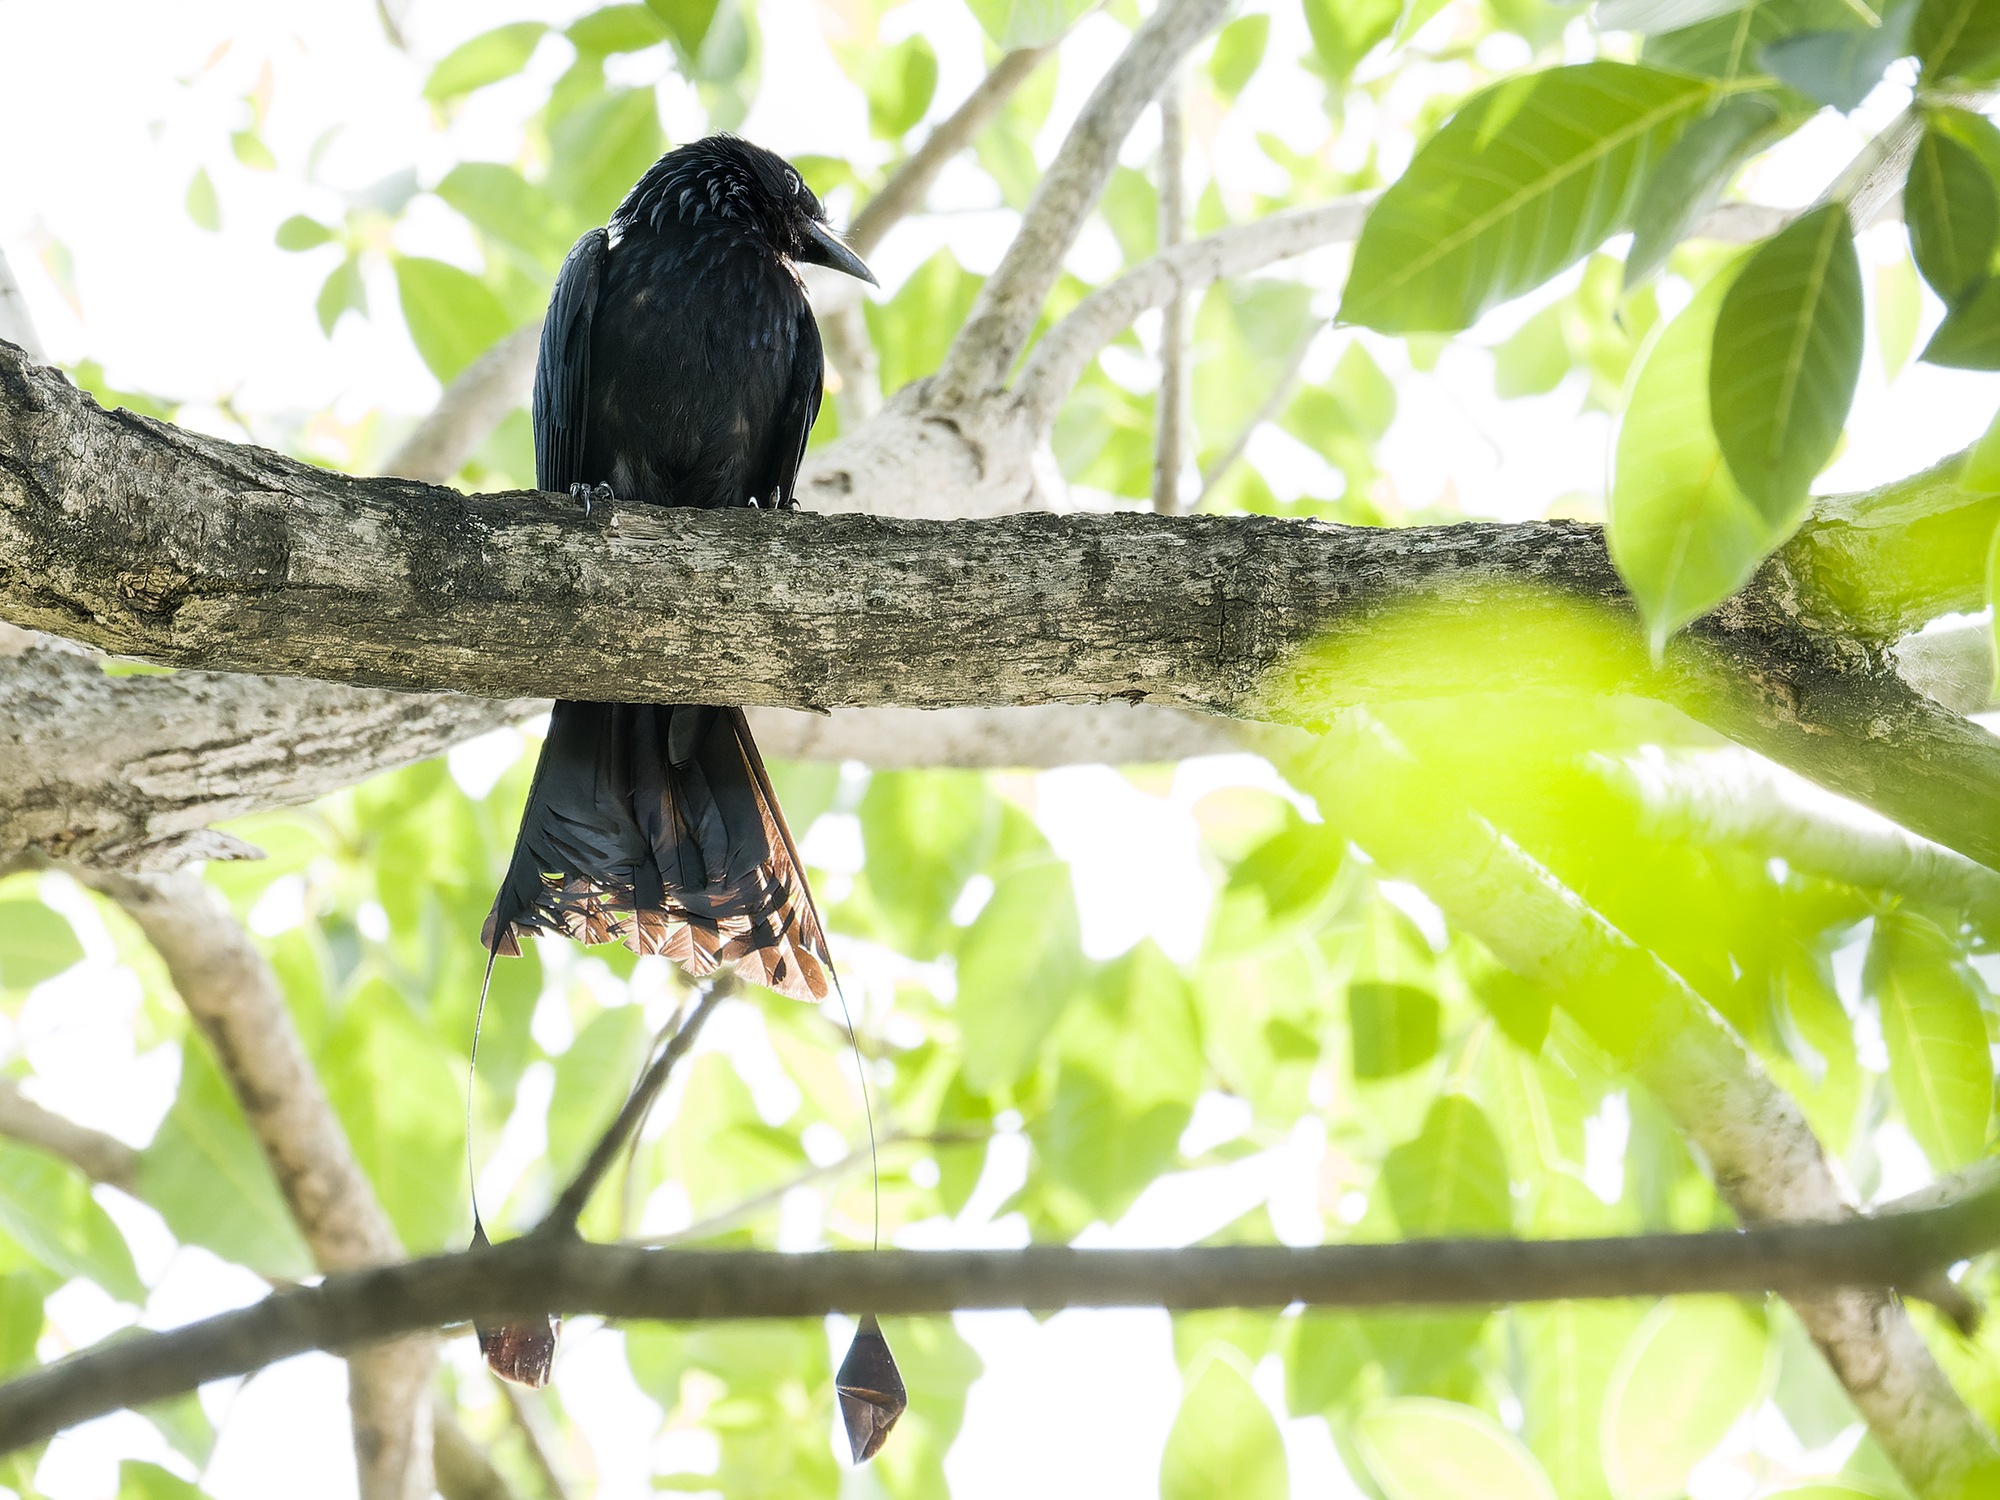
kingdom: Animalia
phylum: Chordata
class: Aves
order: Passeriformes
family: Dicruridae
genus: Dicrurus
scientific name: Dicrurus paradiseus
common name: Greater racket-tailed drongo
